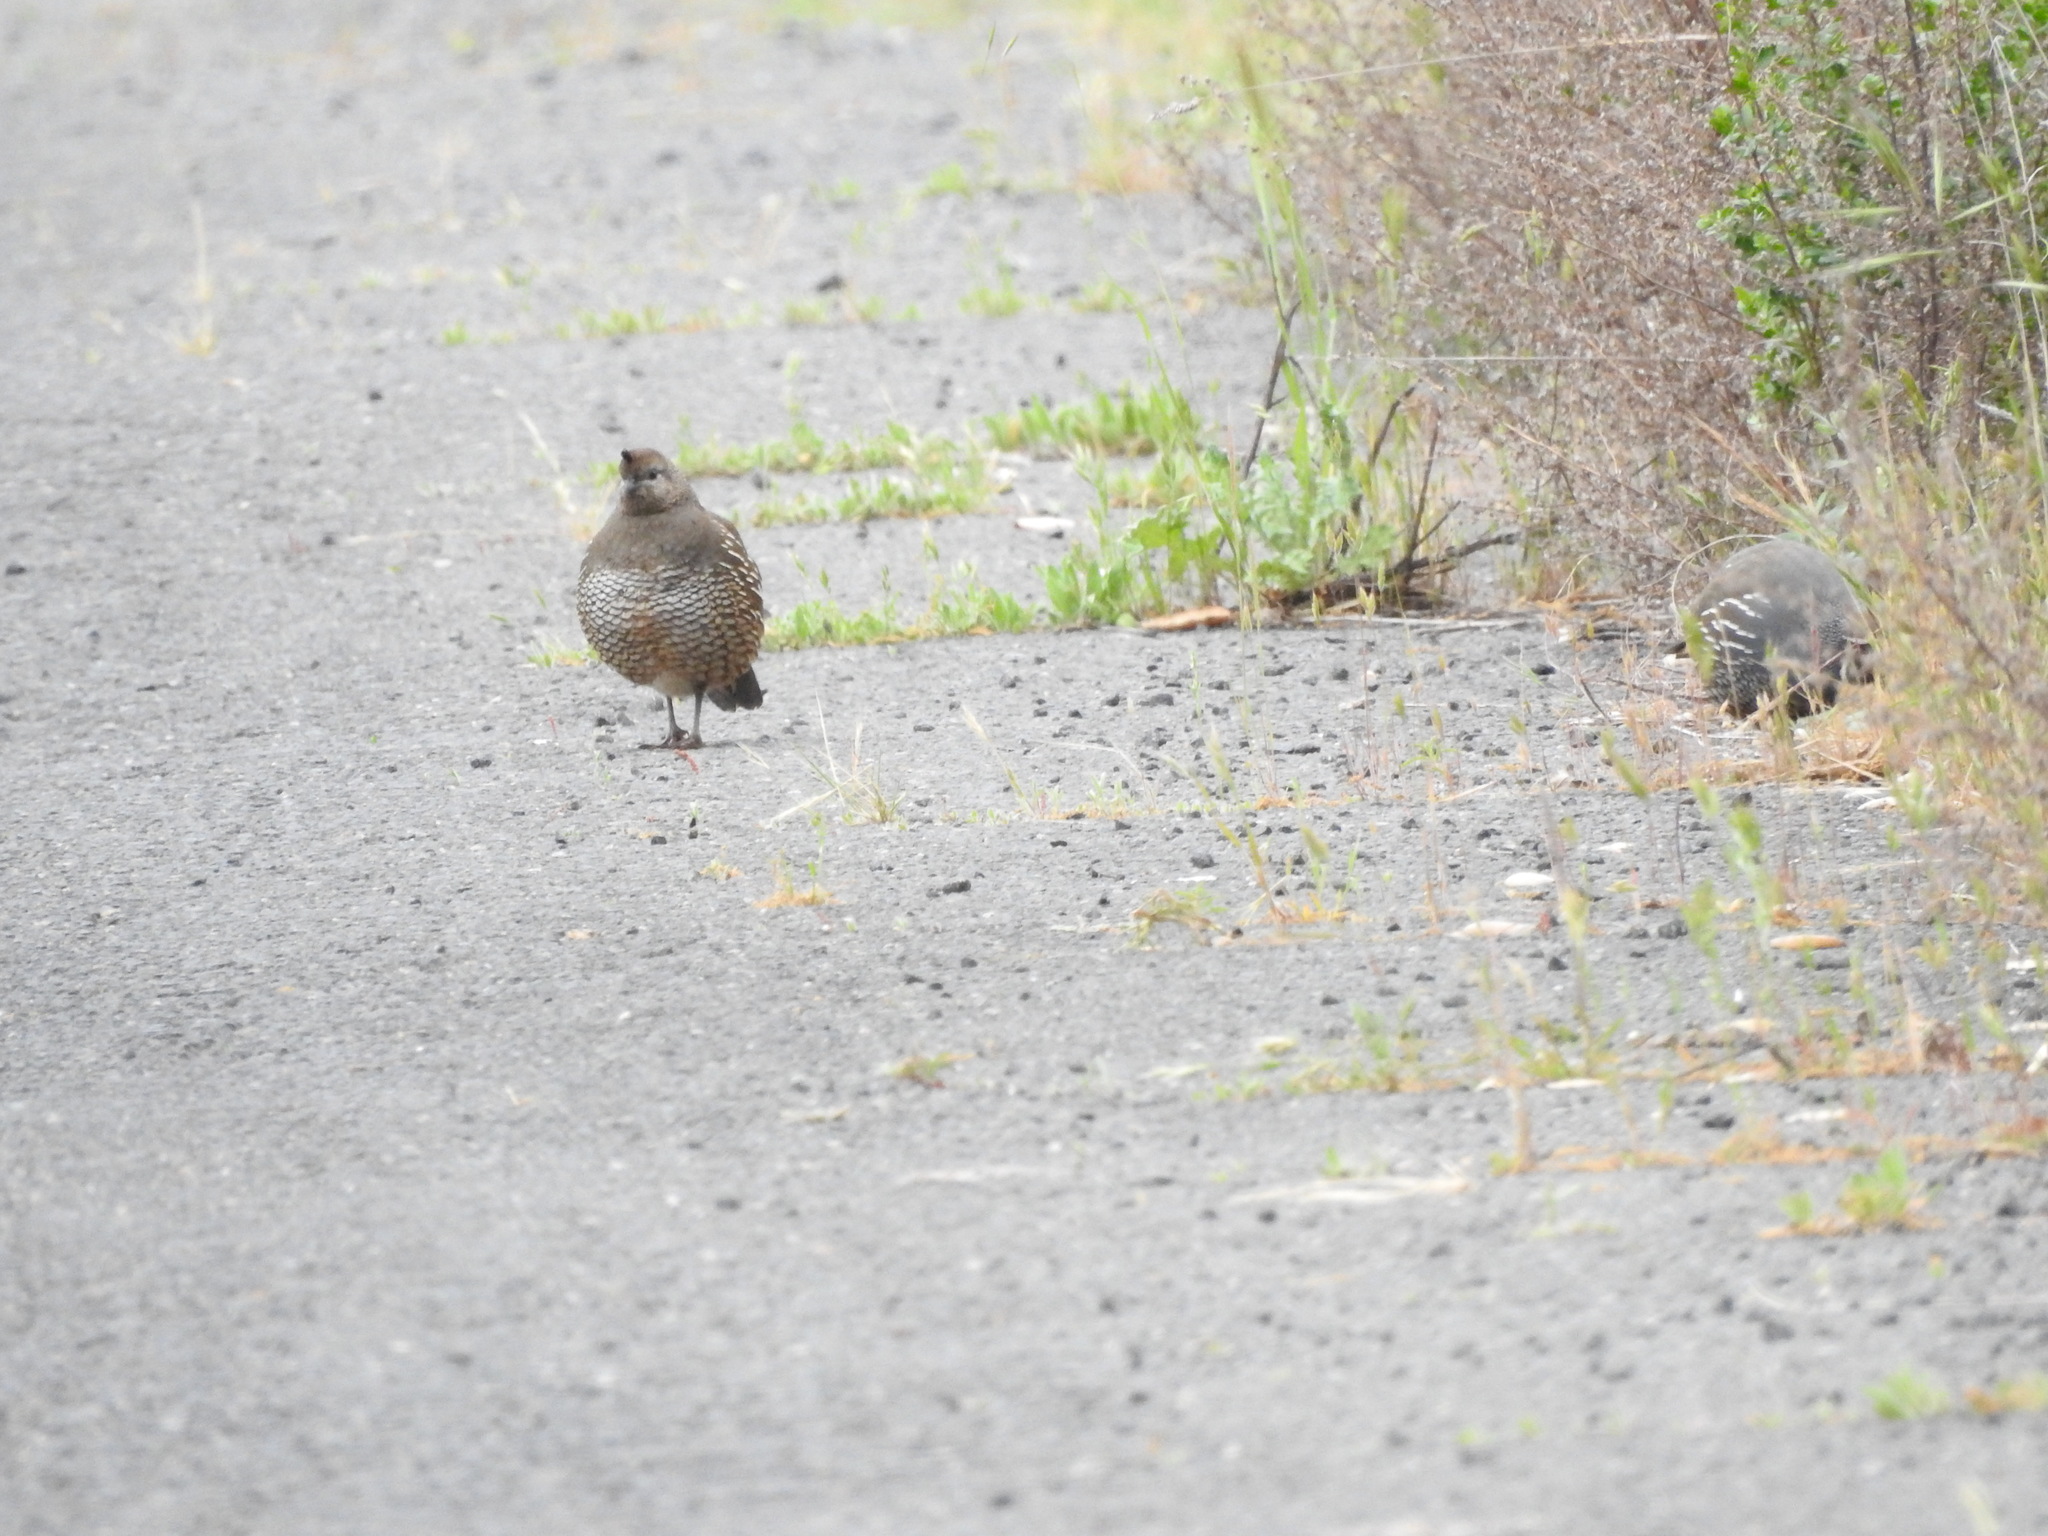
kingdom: Animalia
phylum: Chordata
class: Aves
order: Galliformes
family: Odontophoridae
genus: Callipepla
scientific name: Callipepla californica
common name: California quail
